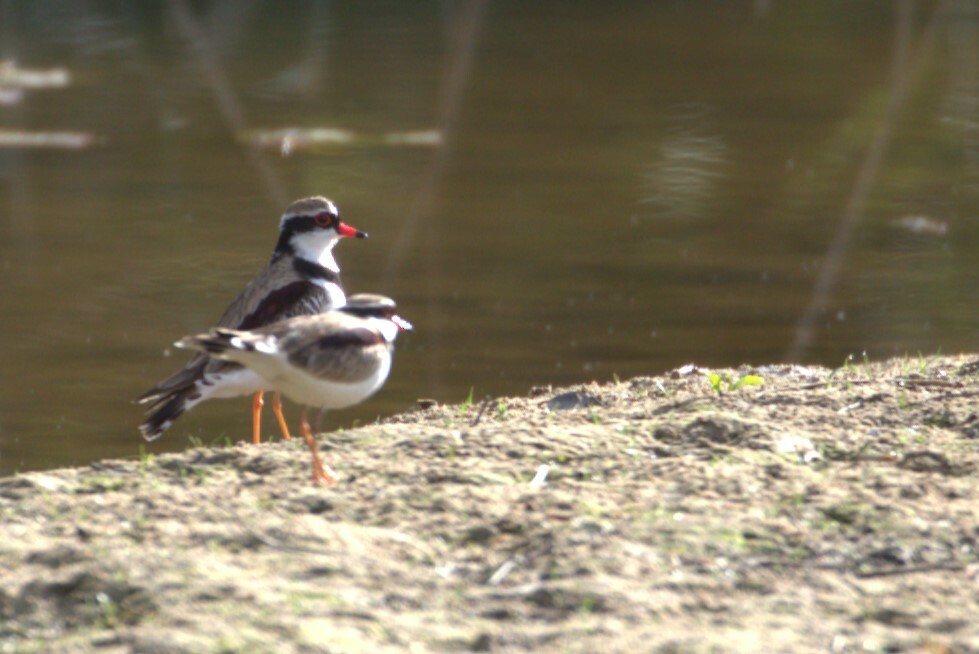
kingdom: Animalia
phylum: Chordata
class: Aves
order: Charadriiformes
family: Charadriidae
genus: Elseyornis
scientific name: Elseyornis melanops
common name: Black-fronted dotterel
